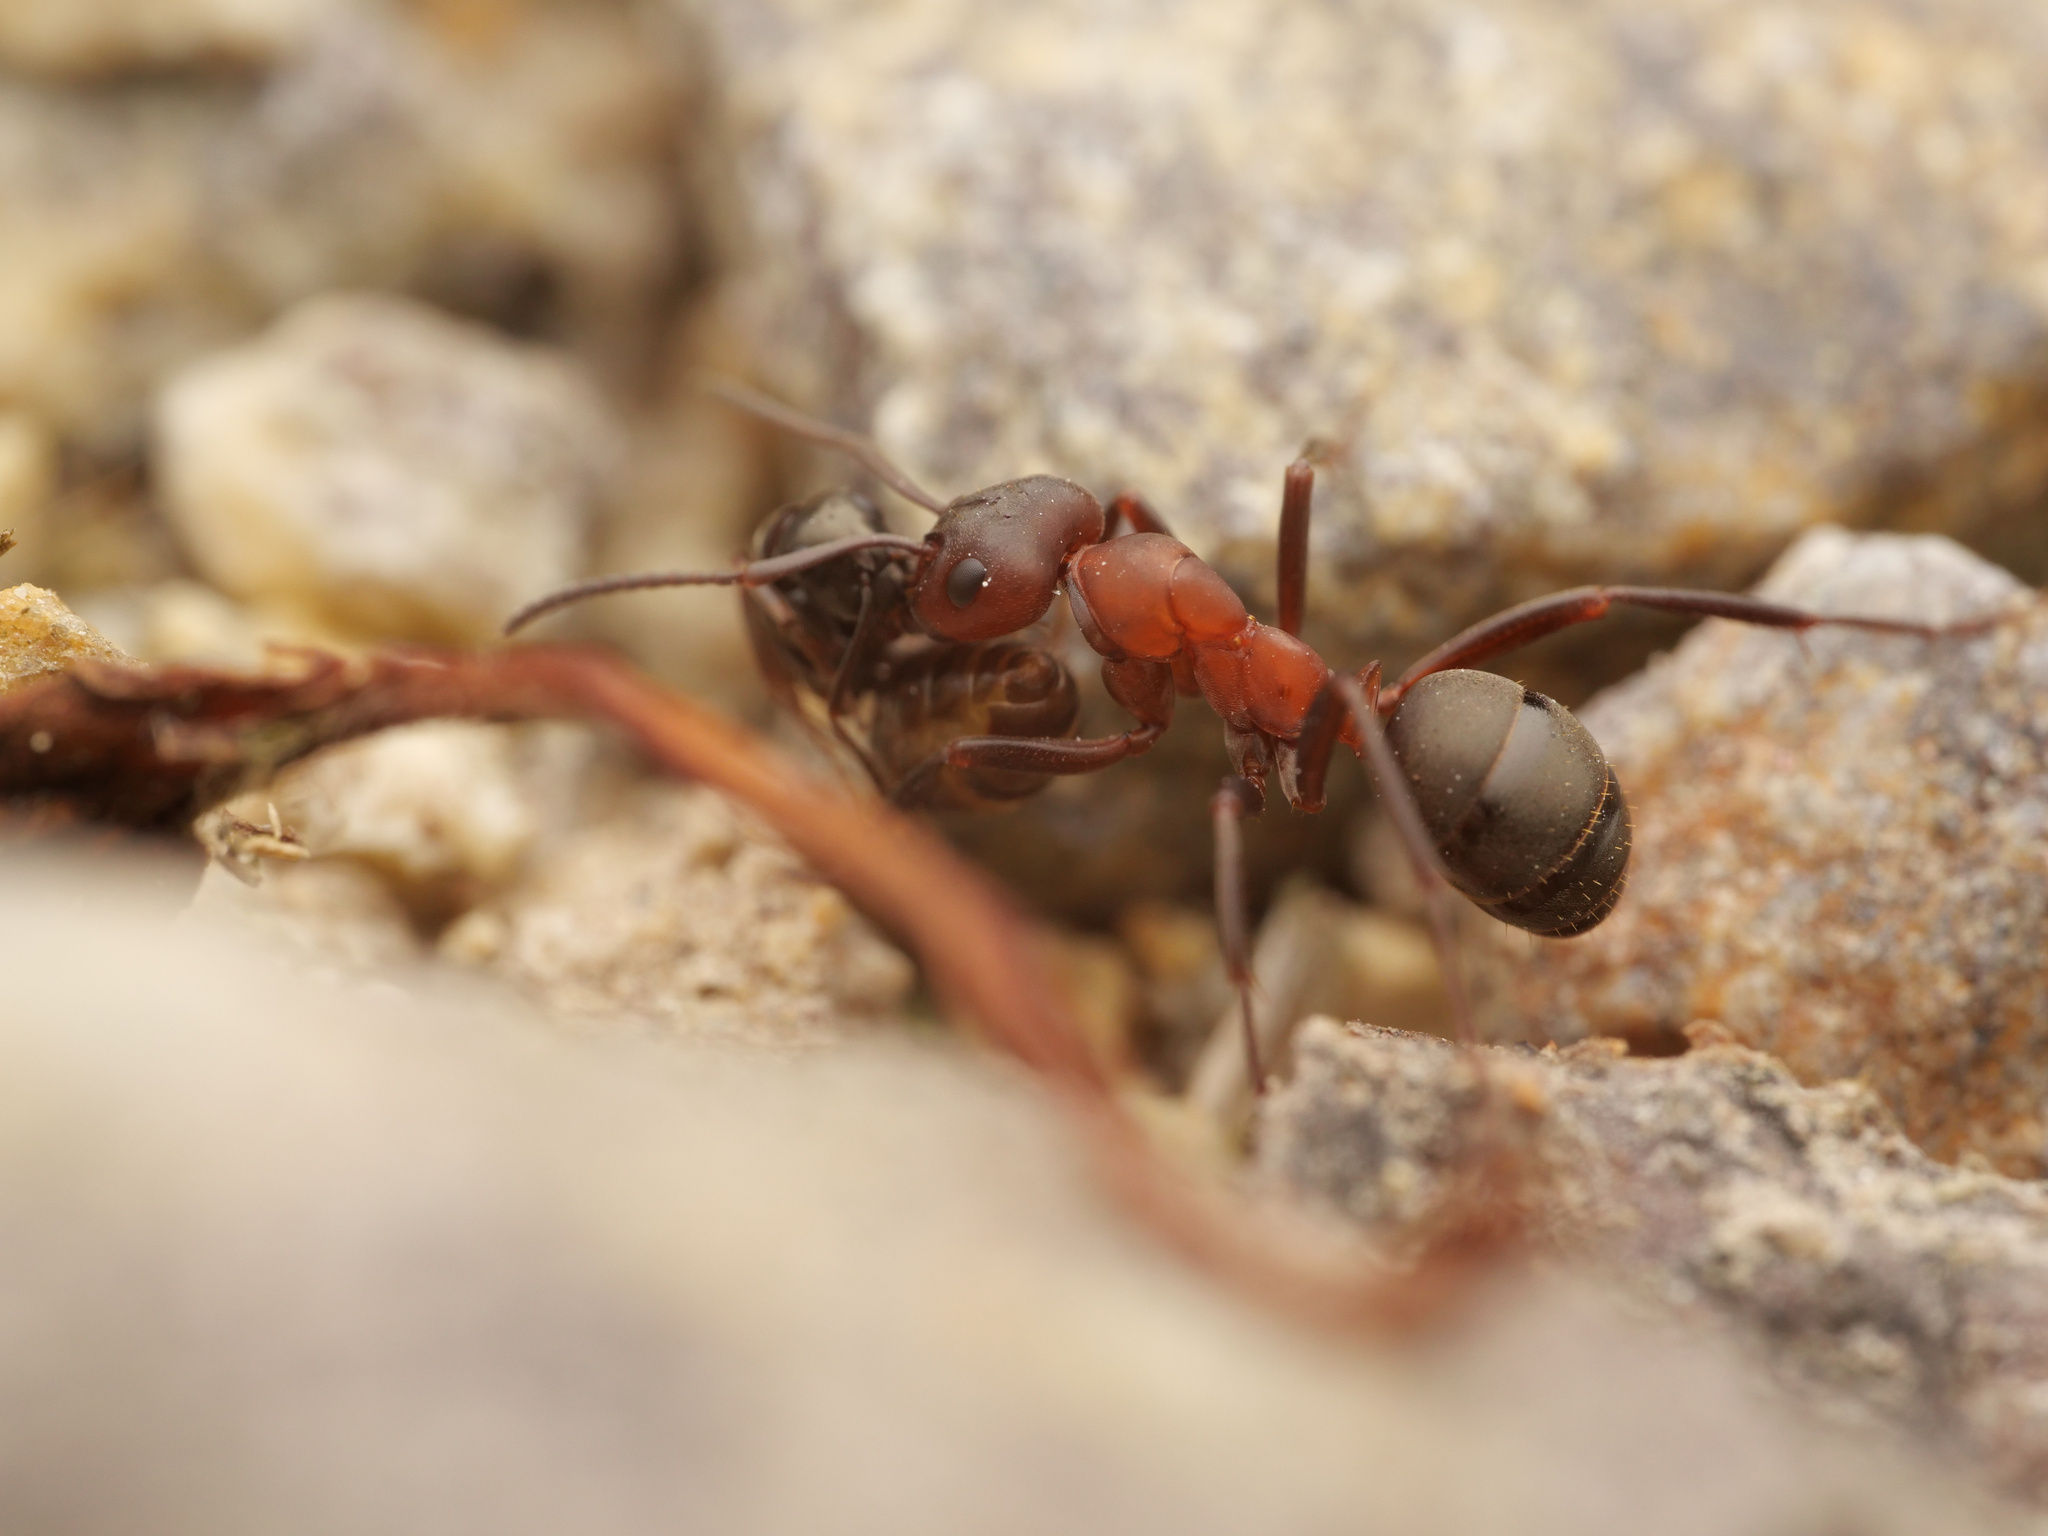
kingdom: Animalia
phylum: Arthropoda
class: Insecta
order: Hymenoptera
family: Formicidae
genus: Formica
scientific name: Formica sanguinea
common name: Blood-red ant
